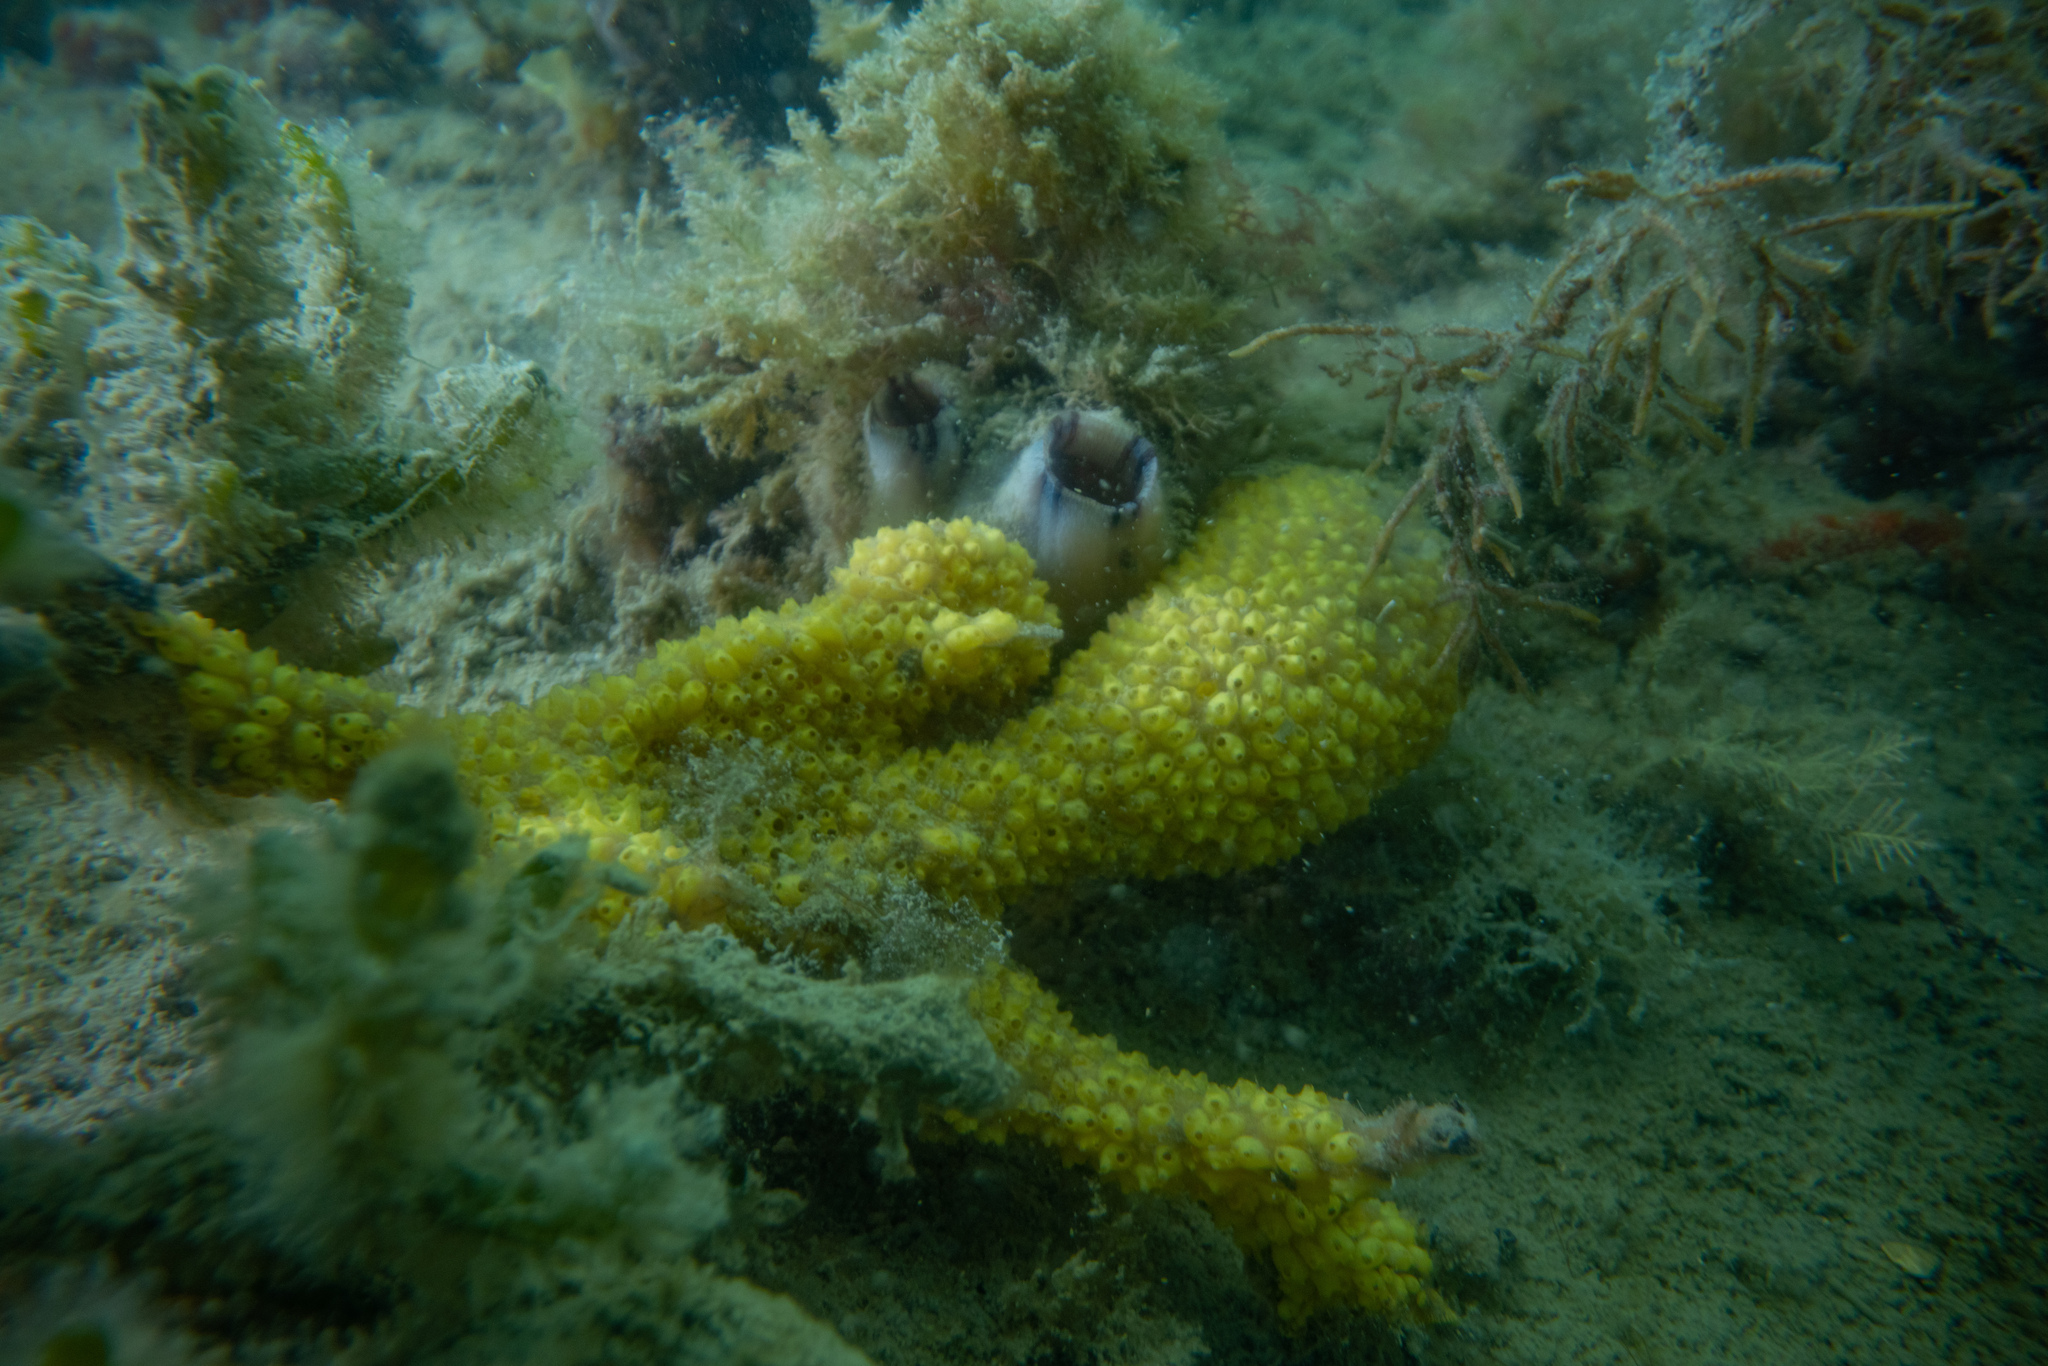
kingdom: Animalia
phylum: Chordata
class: Ascidiacea
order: Stolidobranchia
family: Styelidae
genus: Symplegma
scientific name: Symplegma brakenhielmi
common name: Ascidian
